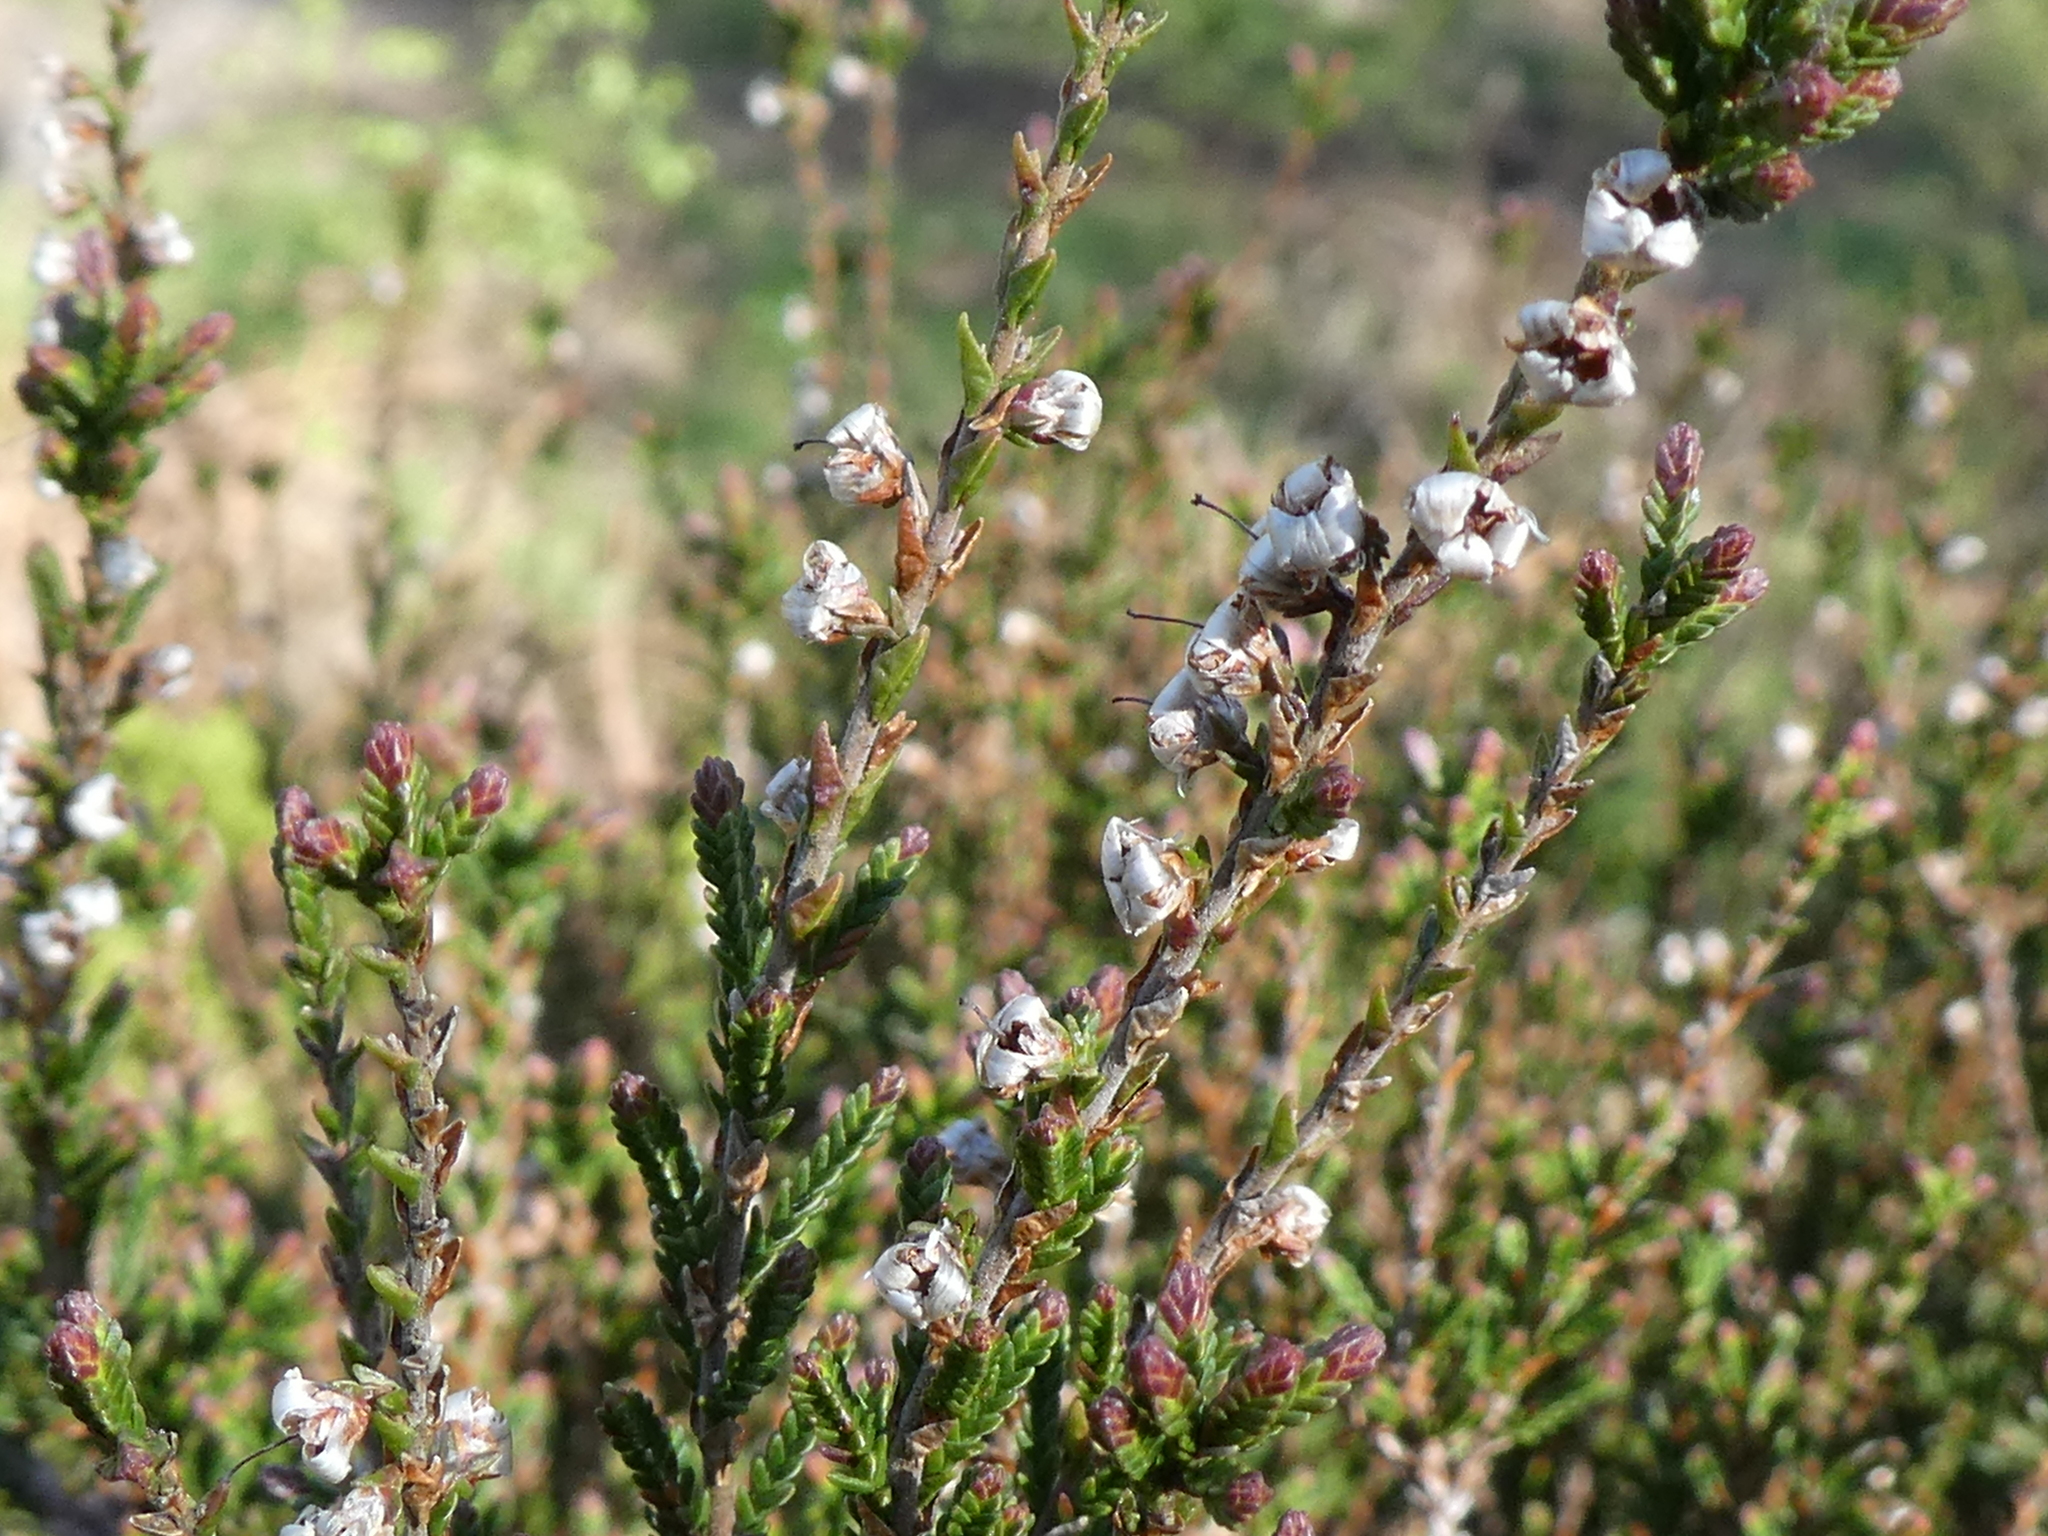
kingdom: Plantae
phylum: Tracheophyta
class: Magnoliopsida
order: Ericales
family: Ericaceae
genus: Calluna
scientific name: Calluna vulgaris
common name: Heather
